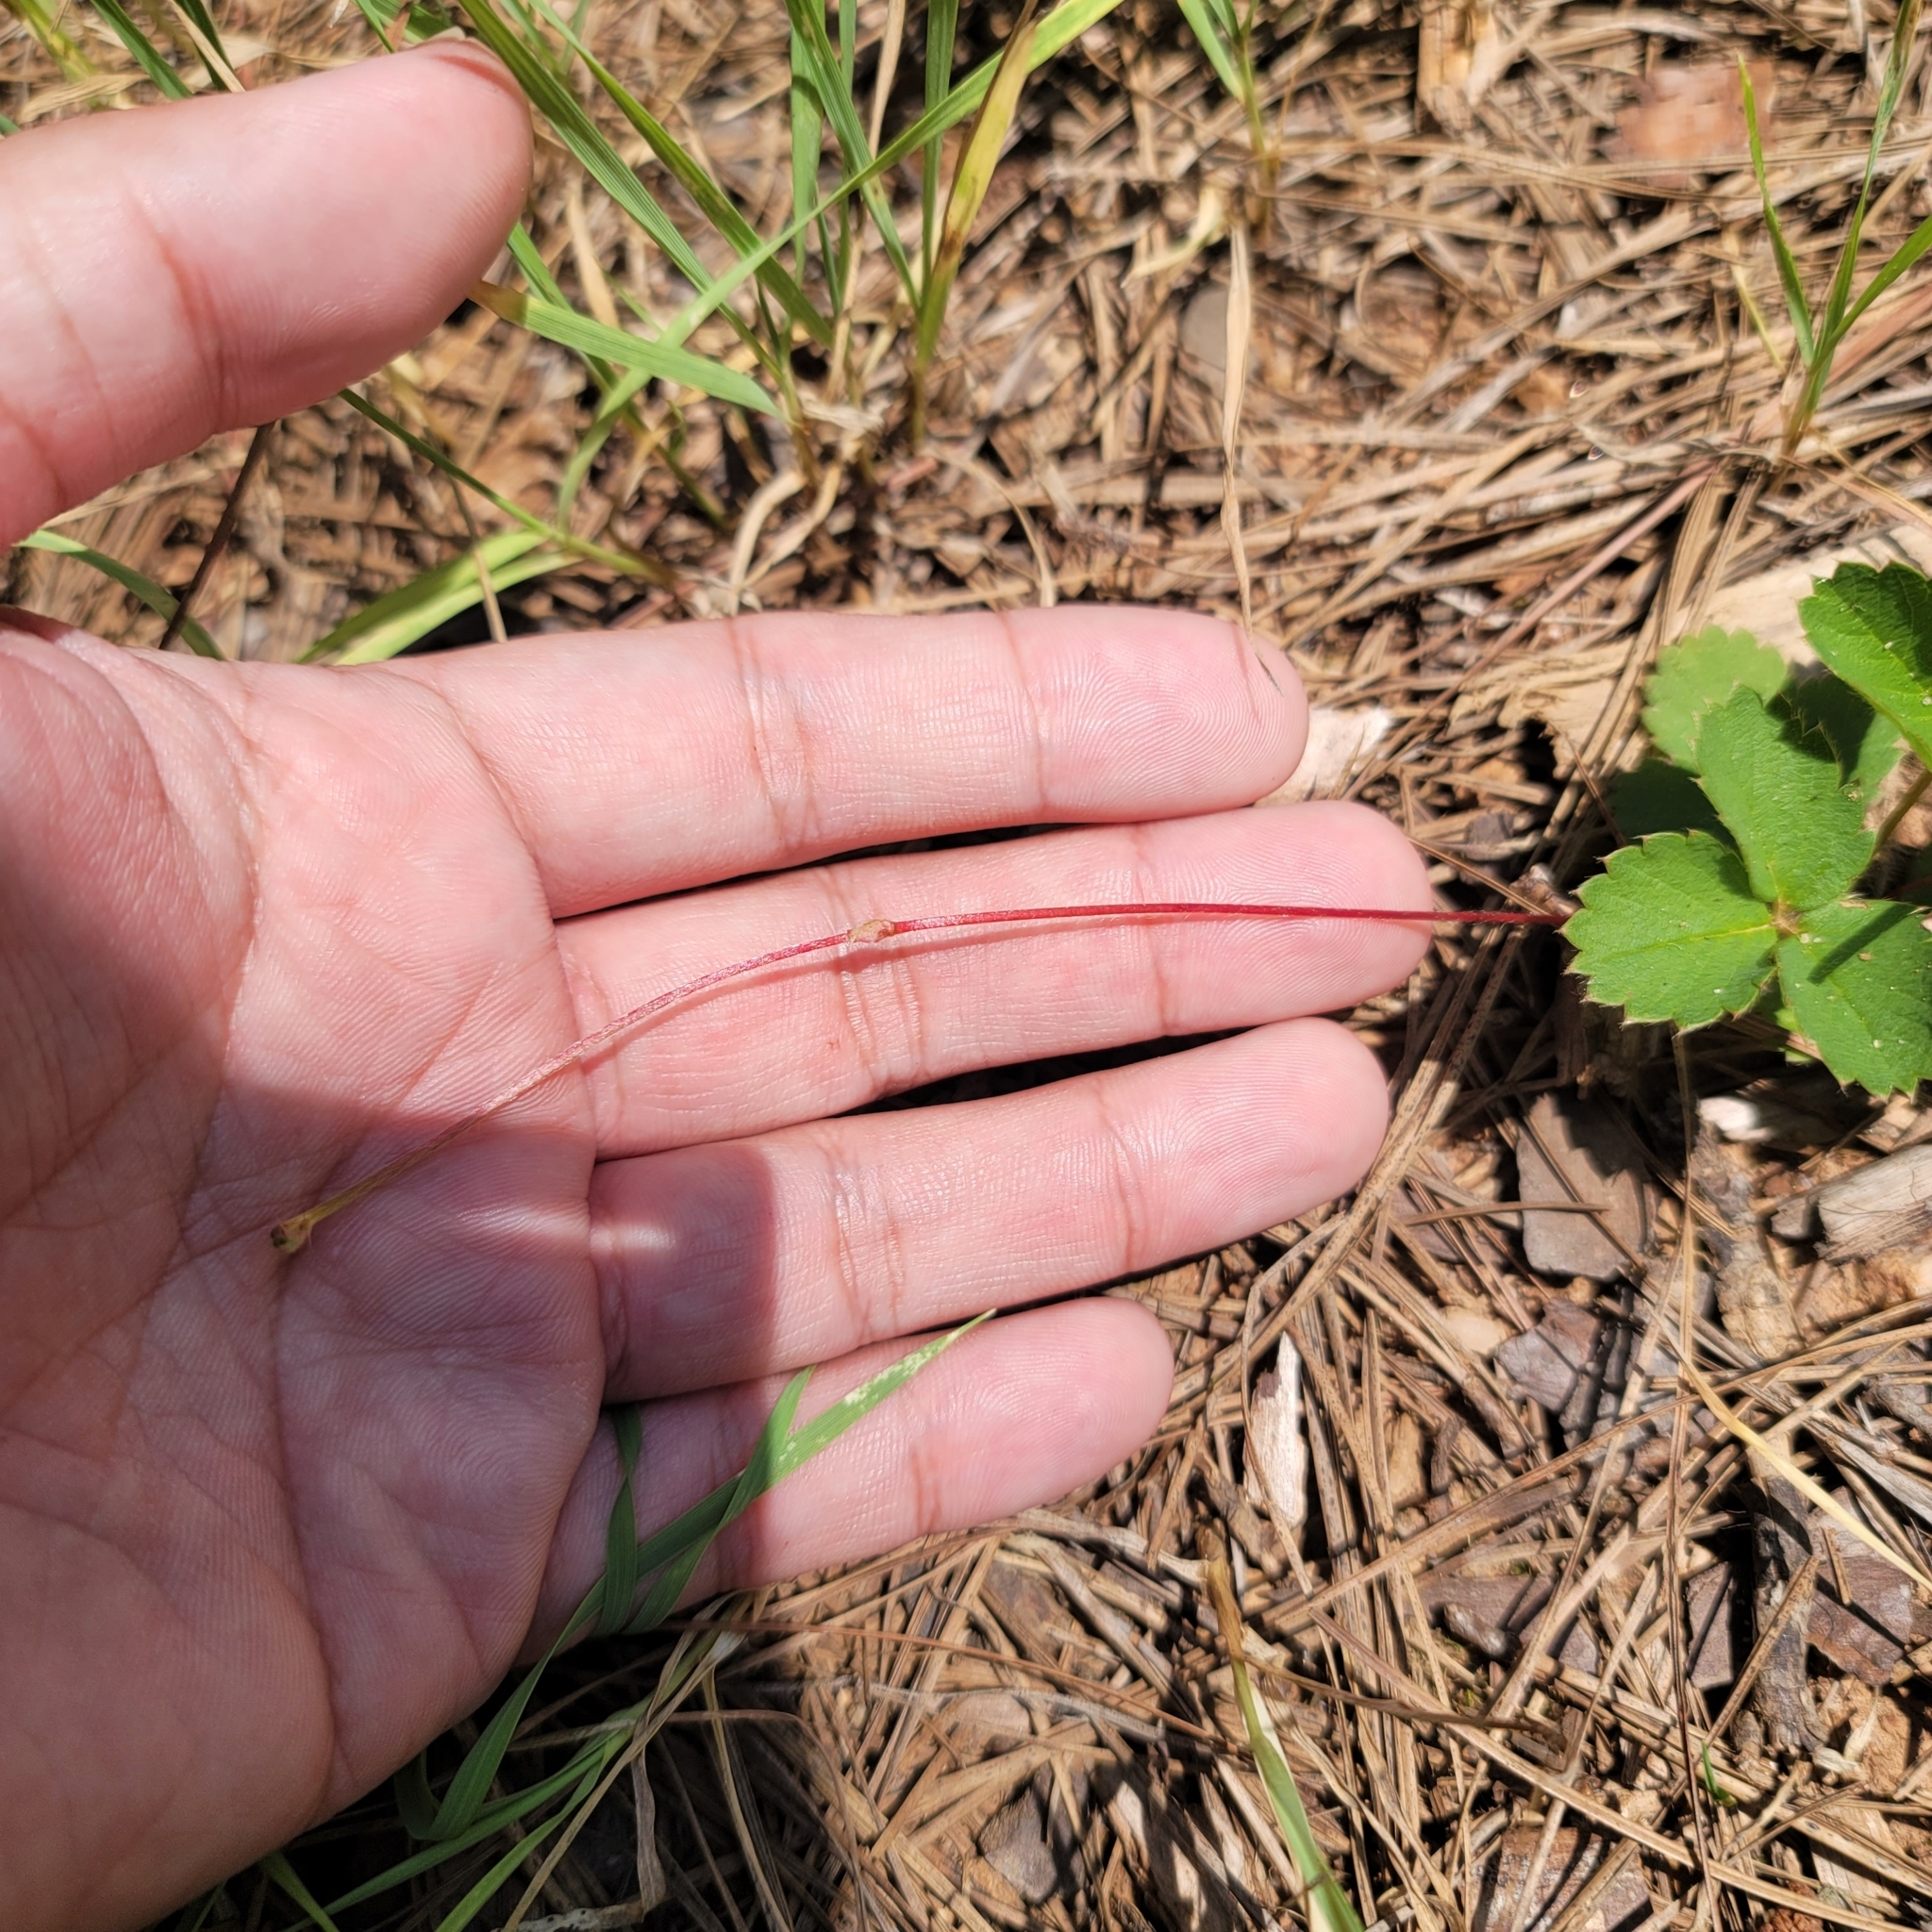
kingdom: Plantae
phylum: Tracheophyta
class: Magnoliopsida
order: Rosales
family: Rosaceae
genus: Fragaria
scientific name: Fragaria virginiana
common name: Thickleaved wild strawberry
